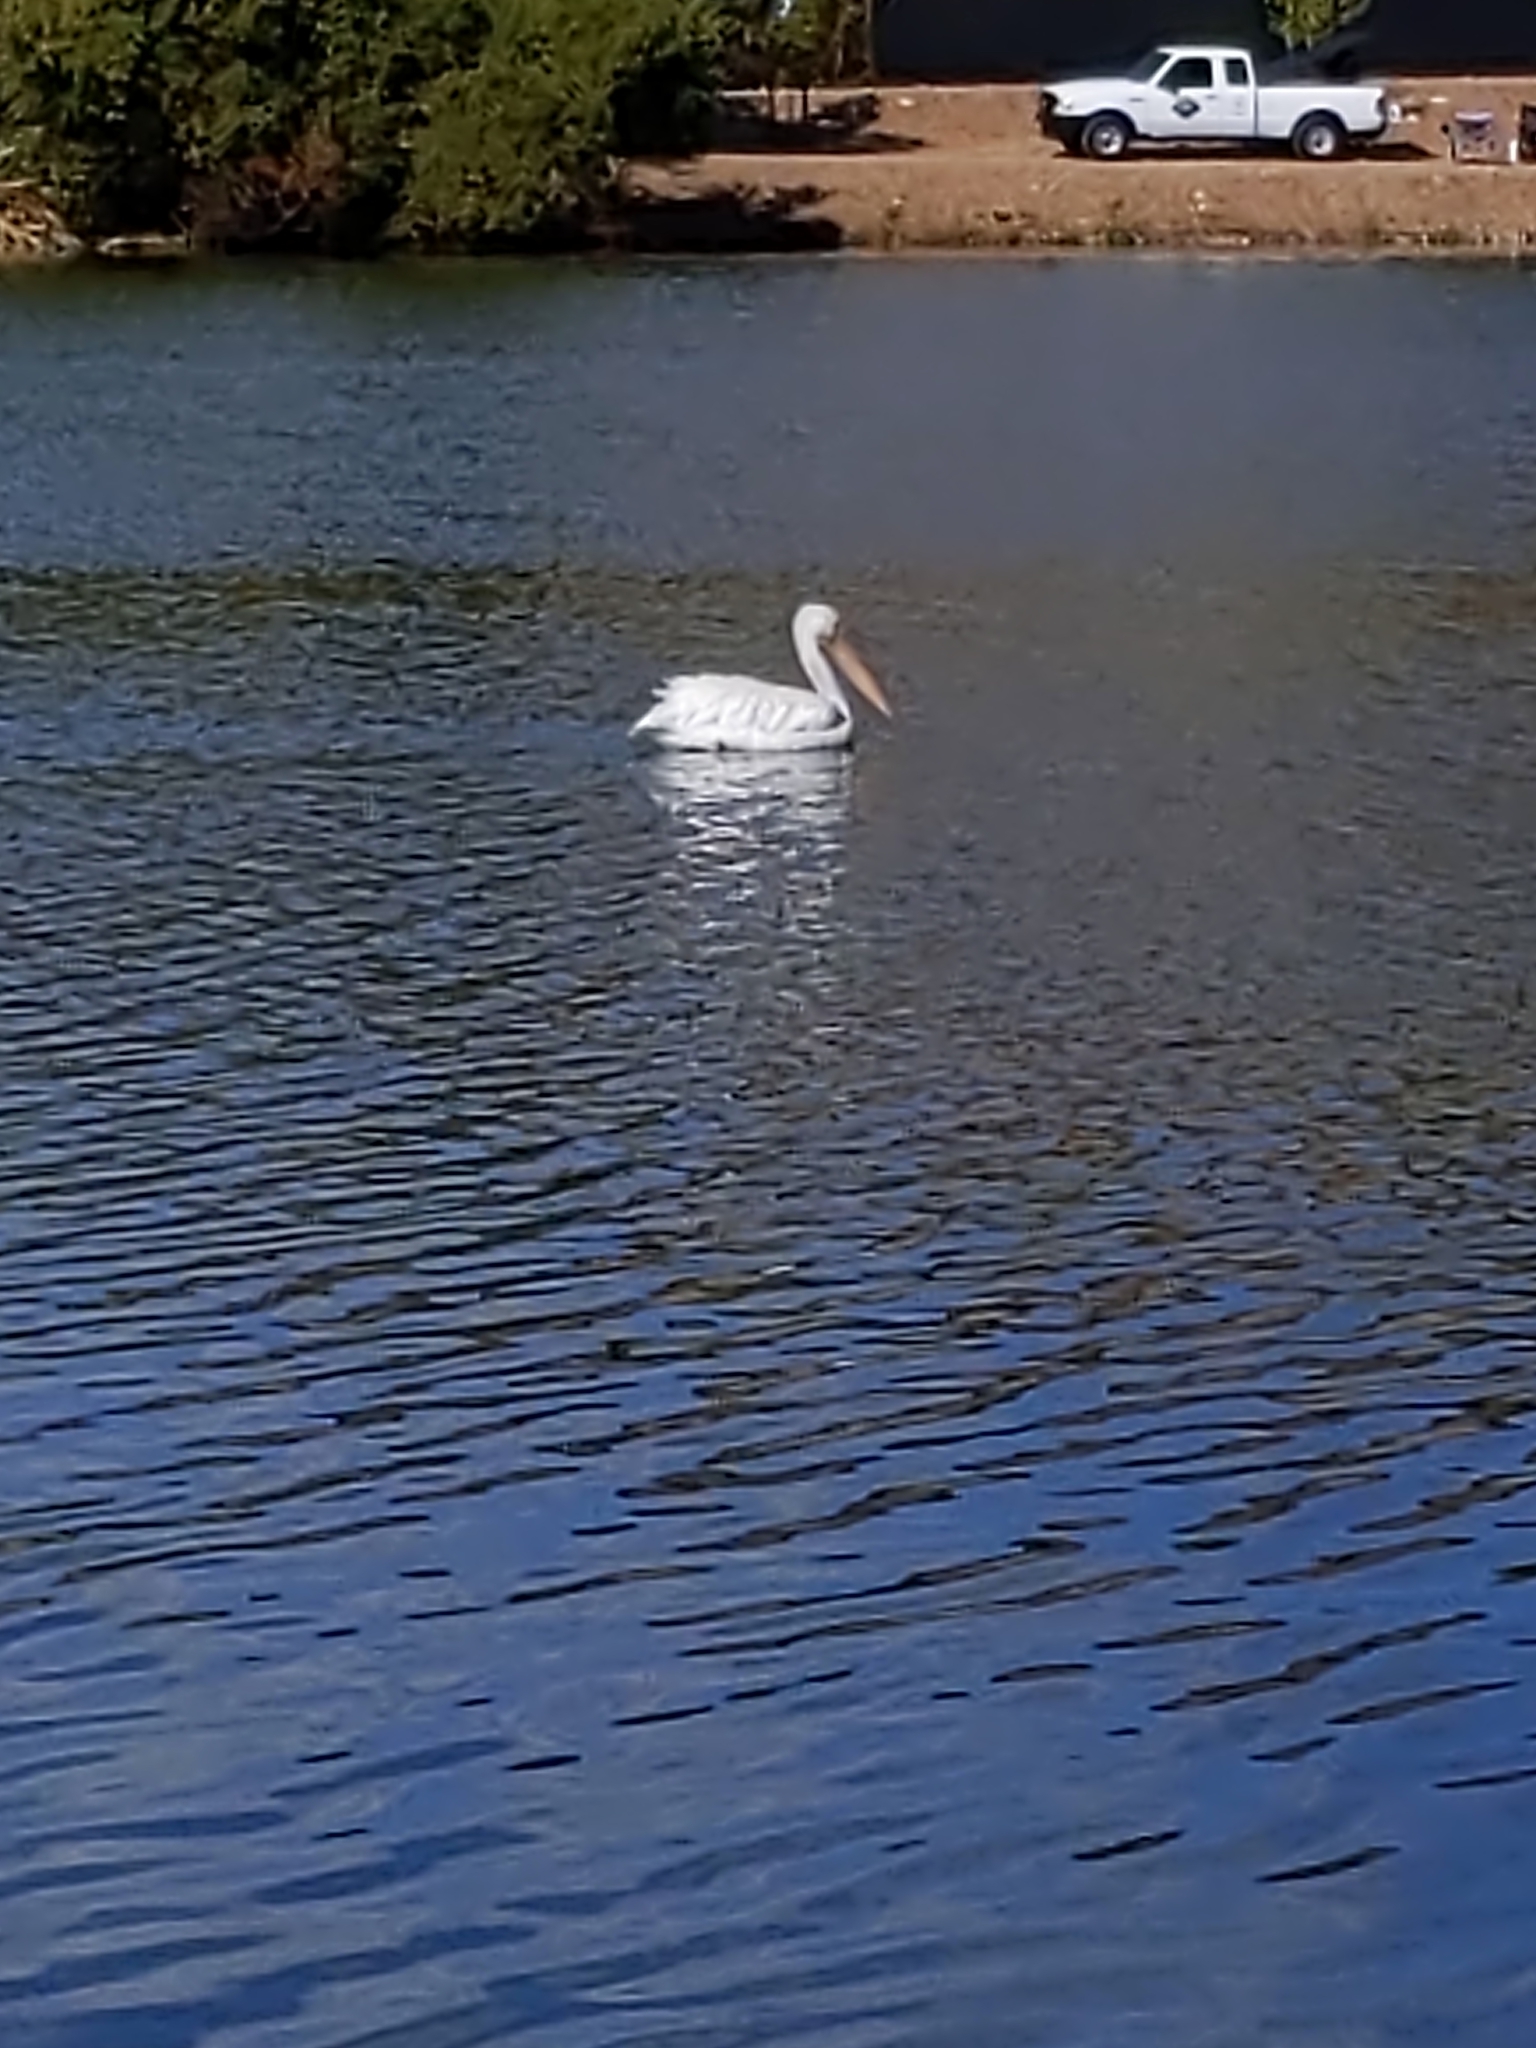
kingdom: Animalia
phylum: Chordata
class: Aves
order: Pelecaniformes
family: Pelecanidae
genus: Pelecanus
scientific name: Pelecanus erythrorhynchos
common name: American white pelican
